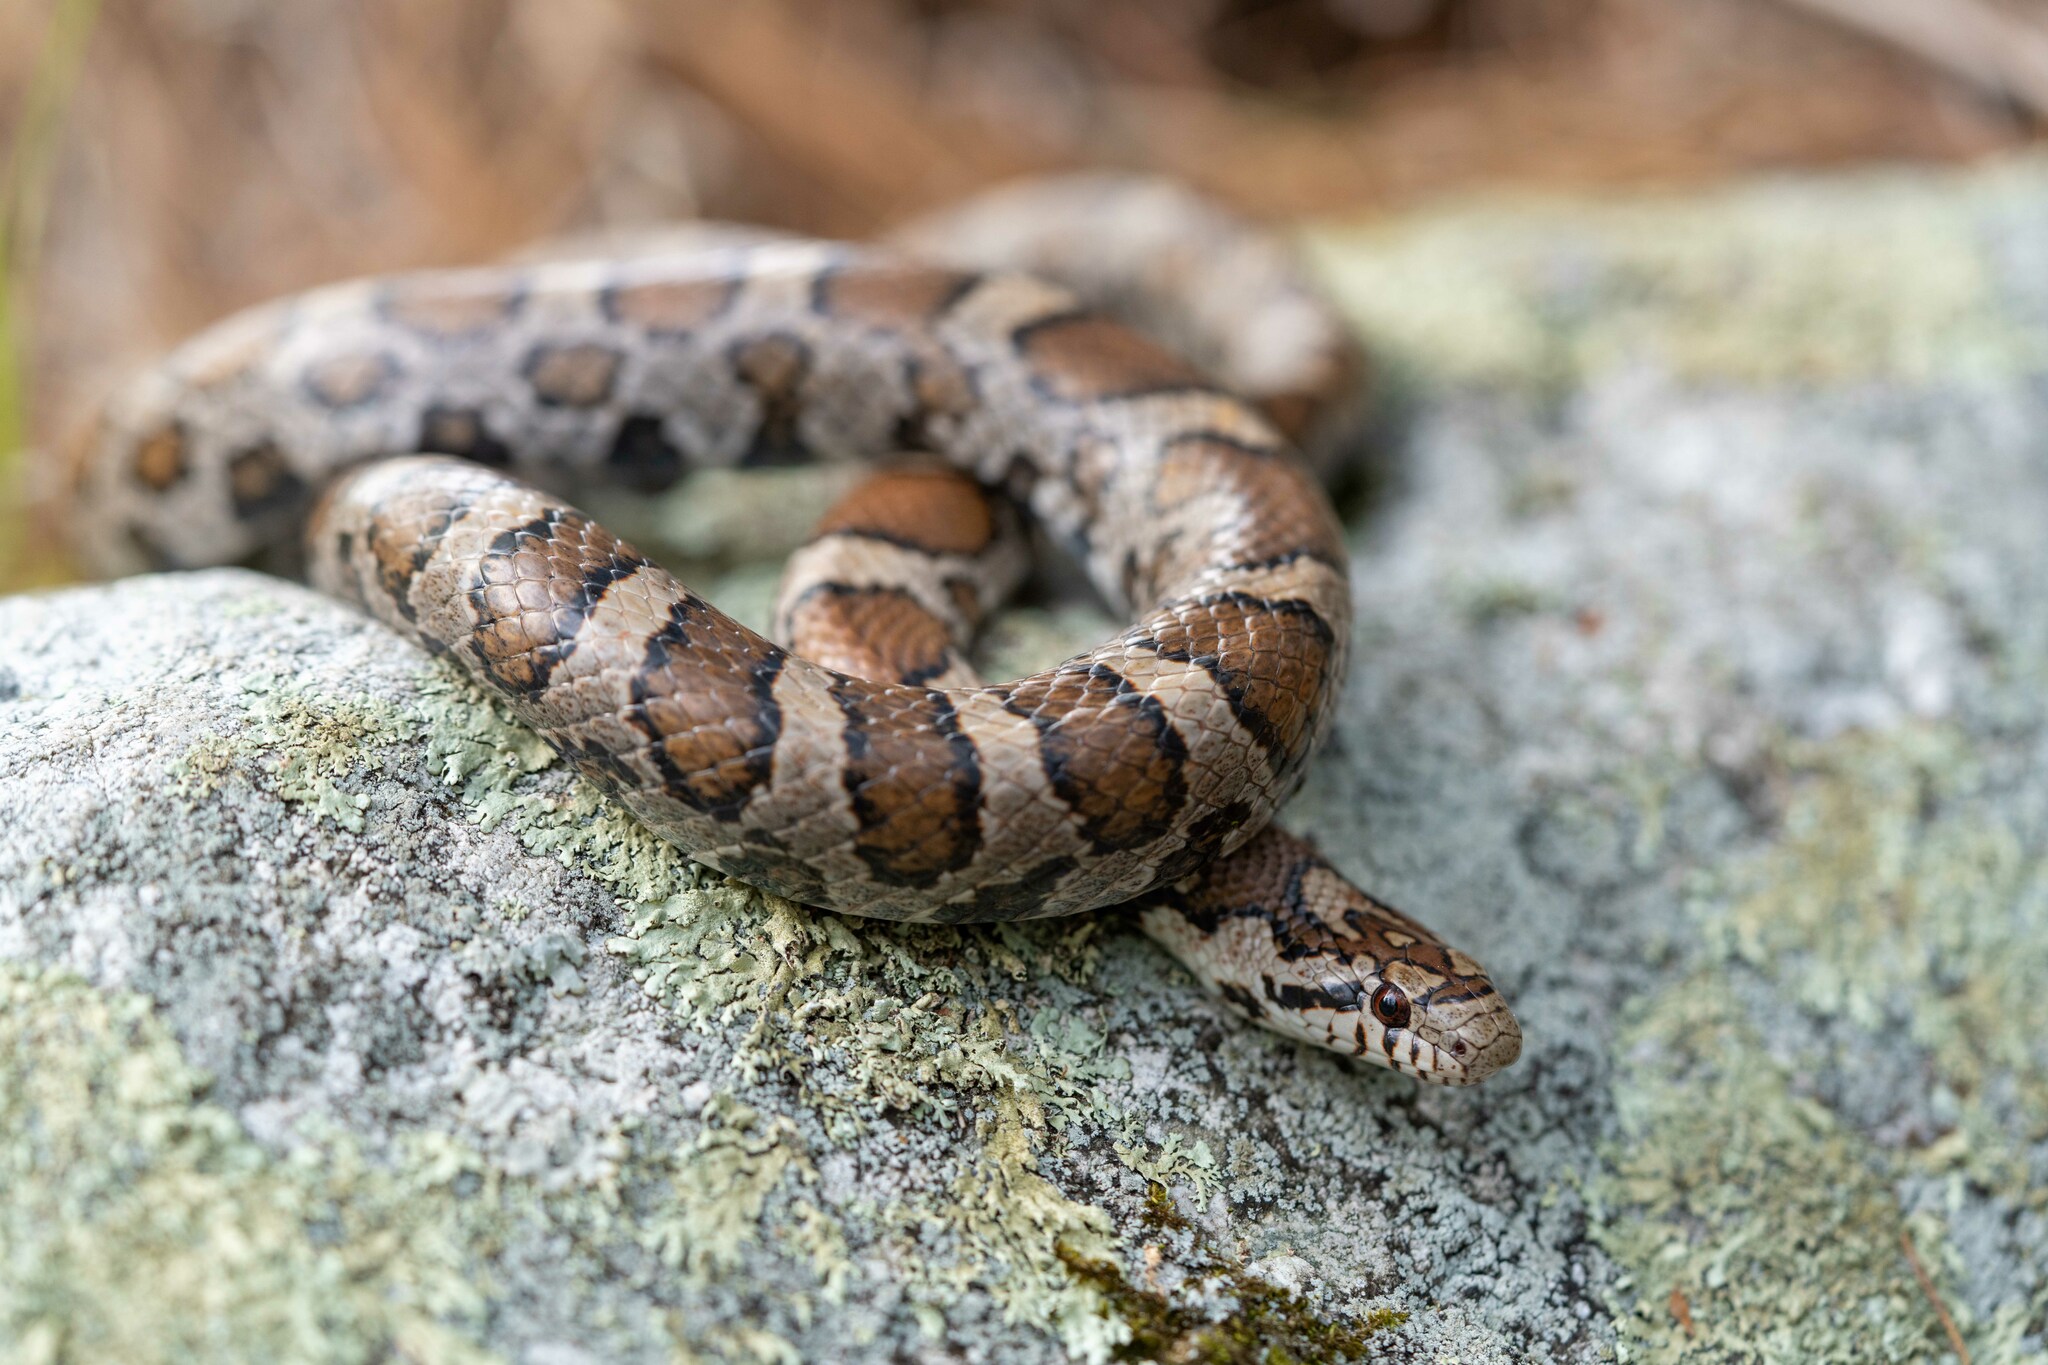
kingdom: Animalia
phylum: Chordata
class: Squamata
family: Colubridae
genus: Lampropeltis
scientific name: Lampropeltis triangulum
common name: Eastern milksnake
